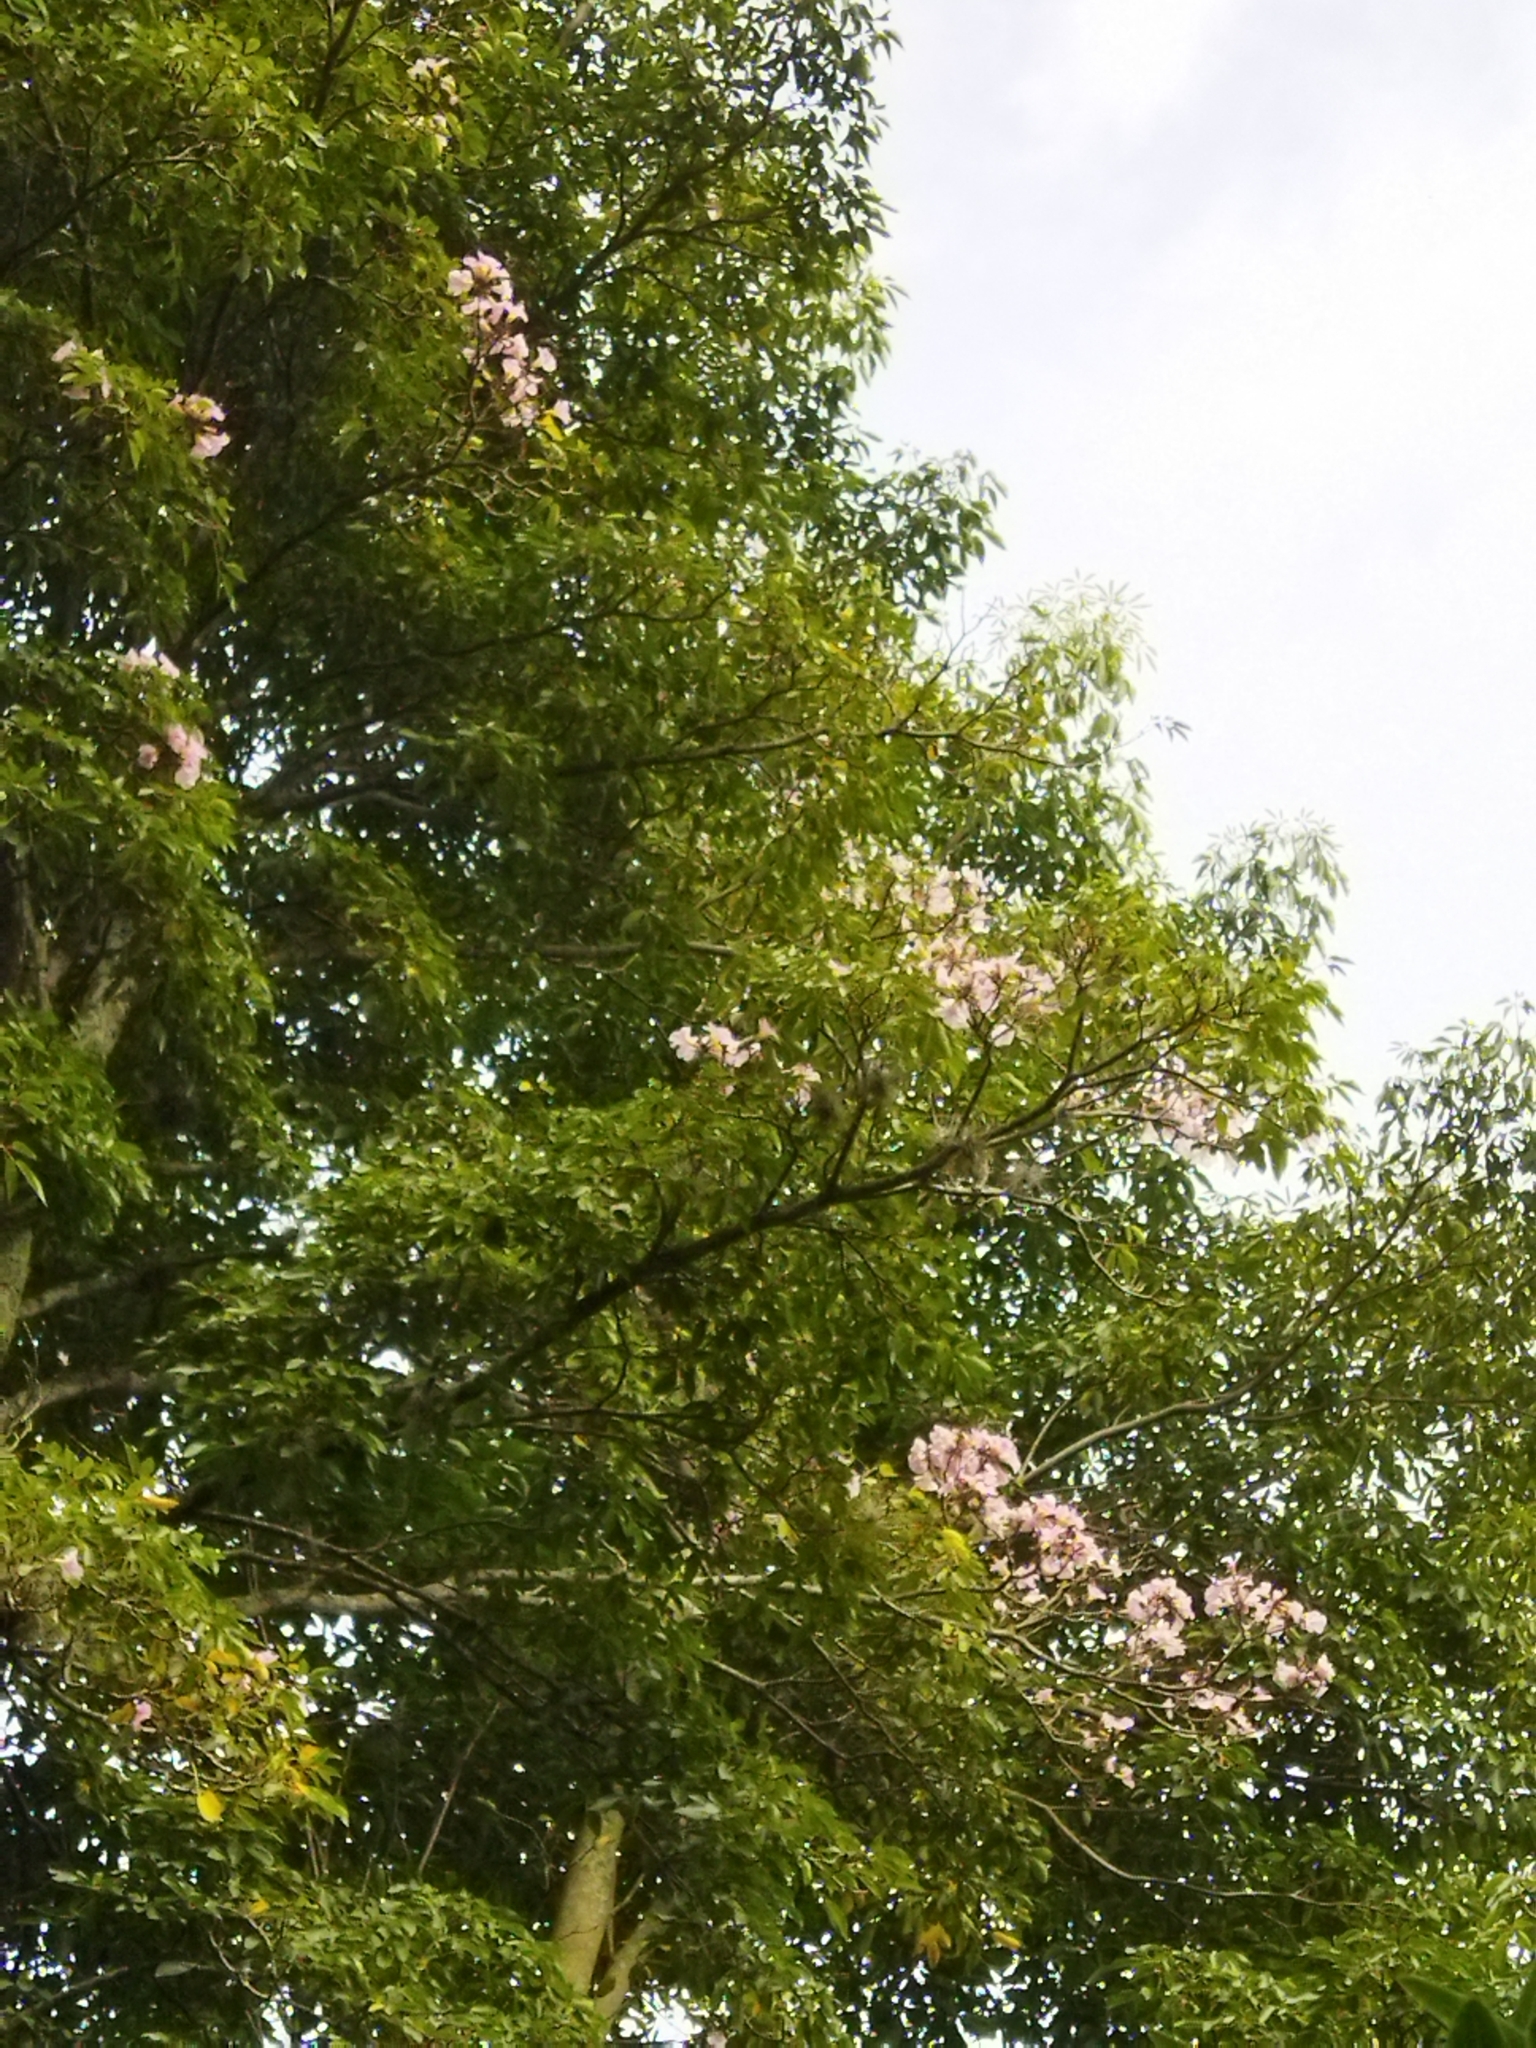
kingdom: Plantae
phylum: Tracheophyta
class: Magnoliopsida
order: Lamiales
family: Bignoniaceae
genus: Tabebuia
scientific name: Tabebuia rosea
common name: Pink poui
